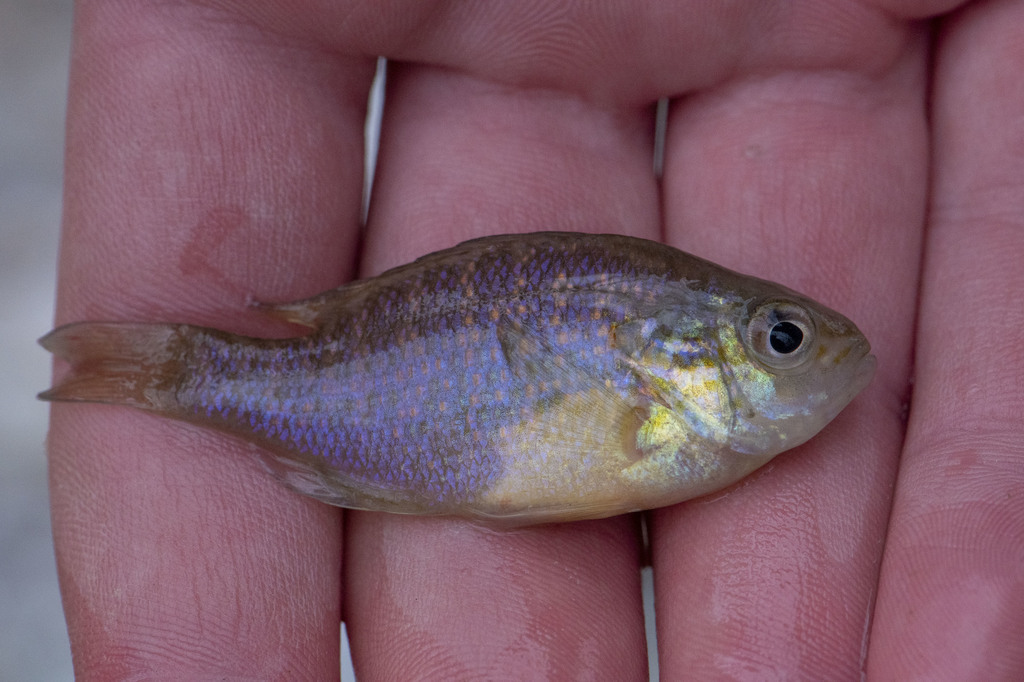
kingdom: Animalia
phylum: Chordata
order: Perciformes
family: Centrarchidae
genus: Lepomis
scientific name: Lepomis gibbosus
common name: Pumpkinseed
